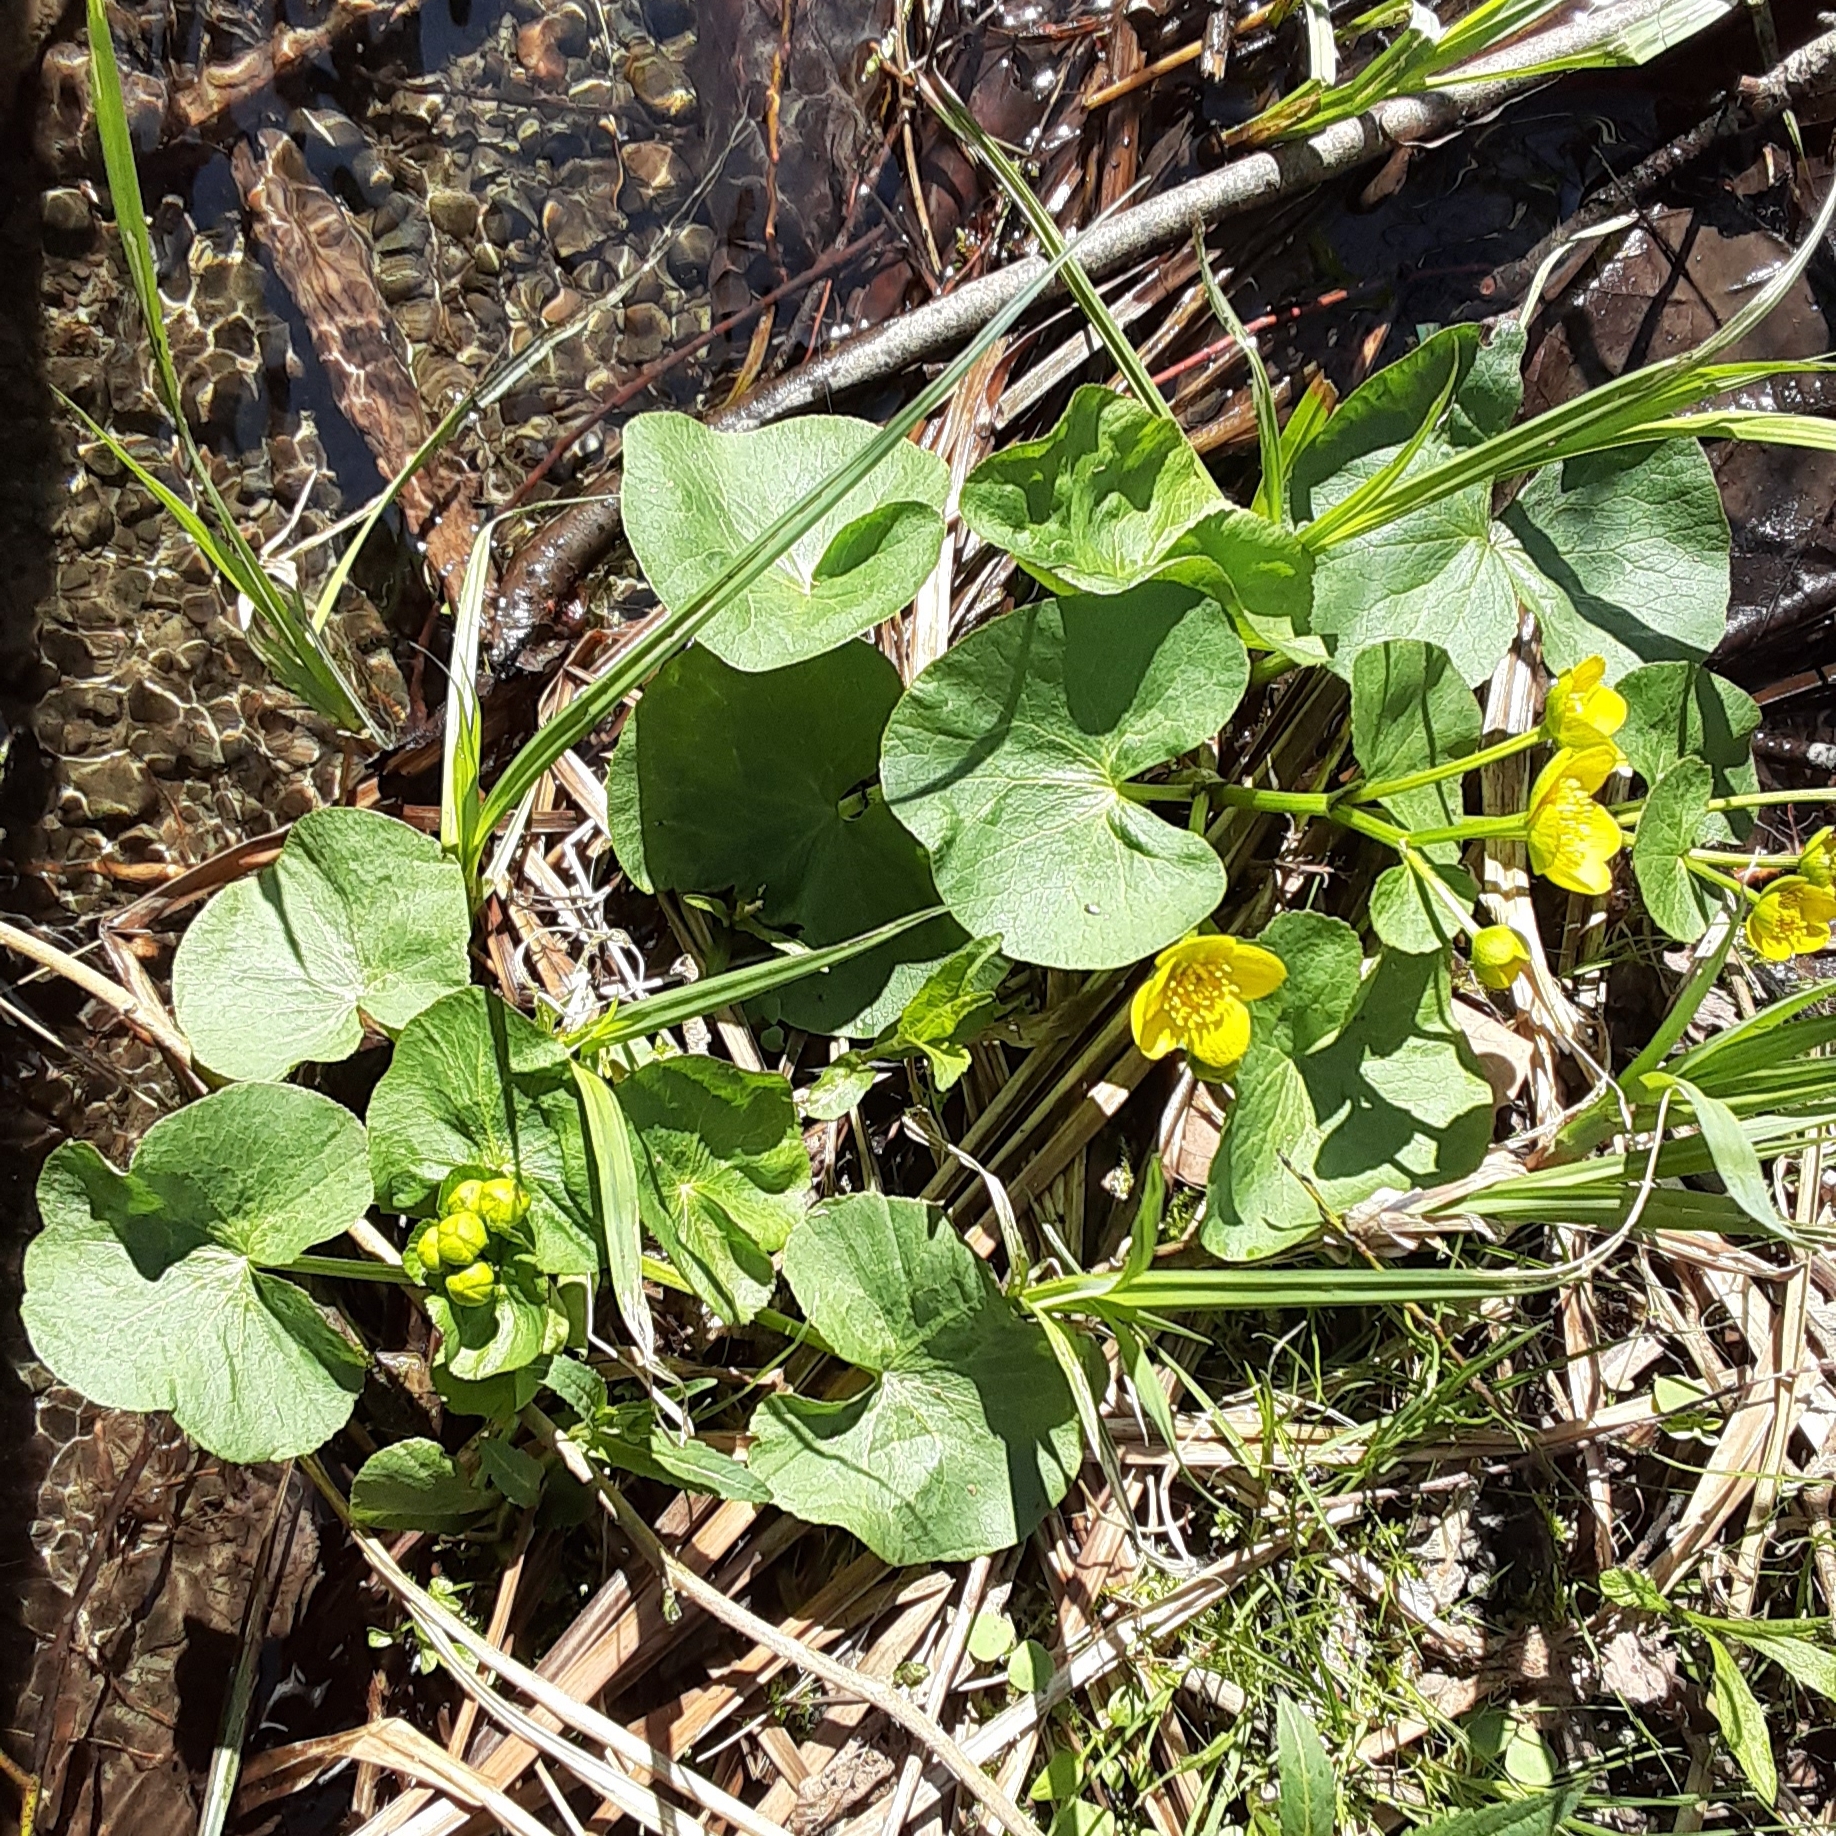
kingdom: Plantae
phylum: Tracheophyta
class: Magnoliopsida
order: Ranunculales
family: Ranunculaceae
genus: Caltha
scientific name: Caltha palustris
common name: Marsh marigold
